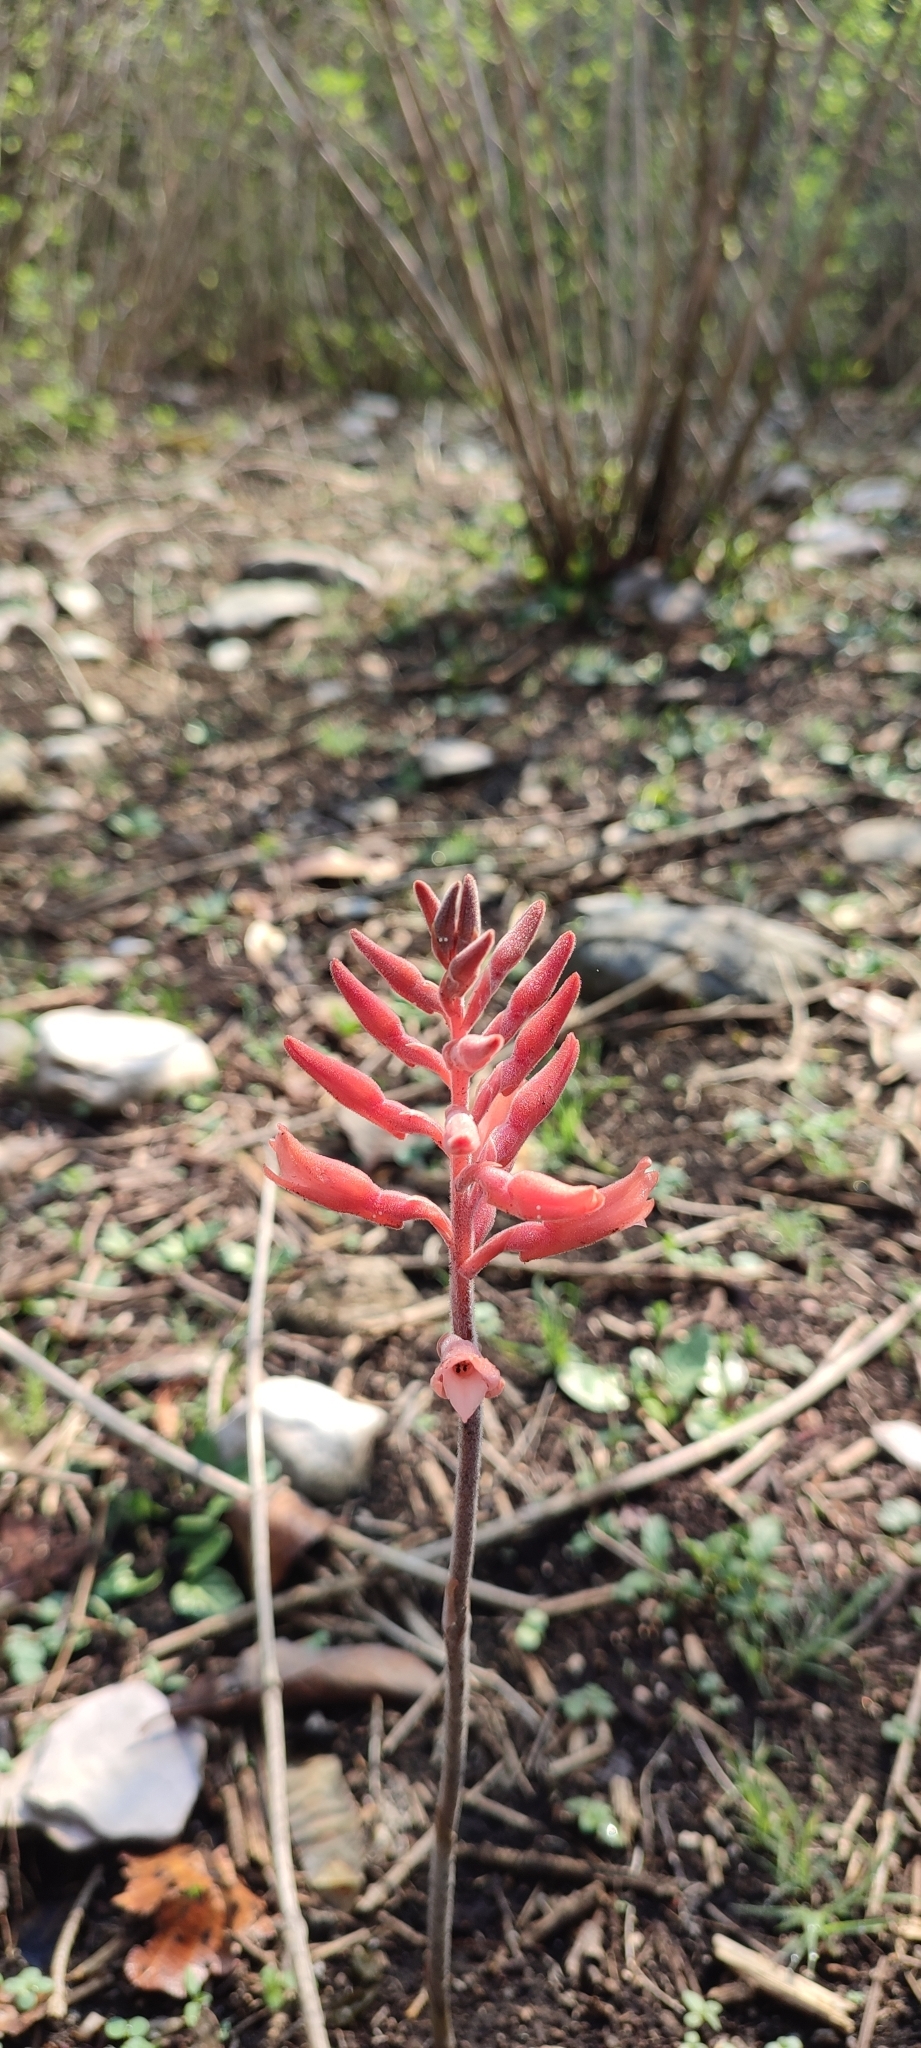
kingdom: Plantae
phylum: Tracheophyta
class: Liliopsida
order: Asparagales
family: Orchidaceae
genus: Sacoila
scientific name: Sacoila lanceolata
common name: Leafless beaked ladiestresses
